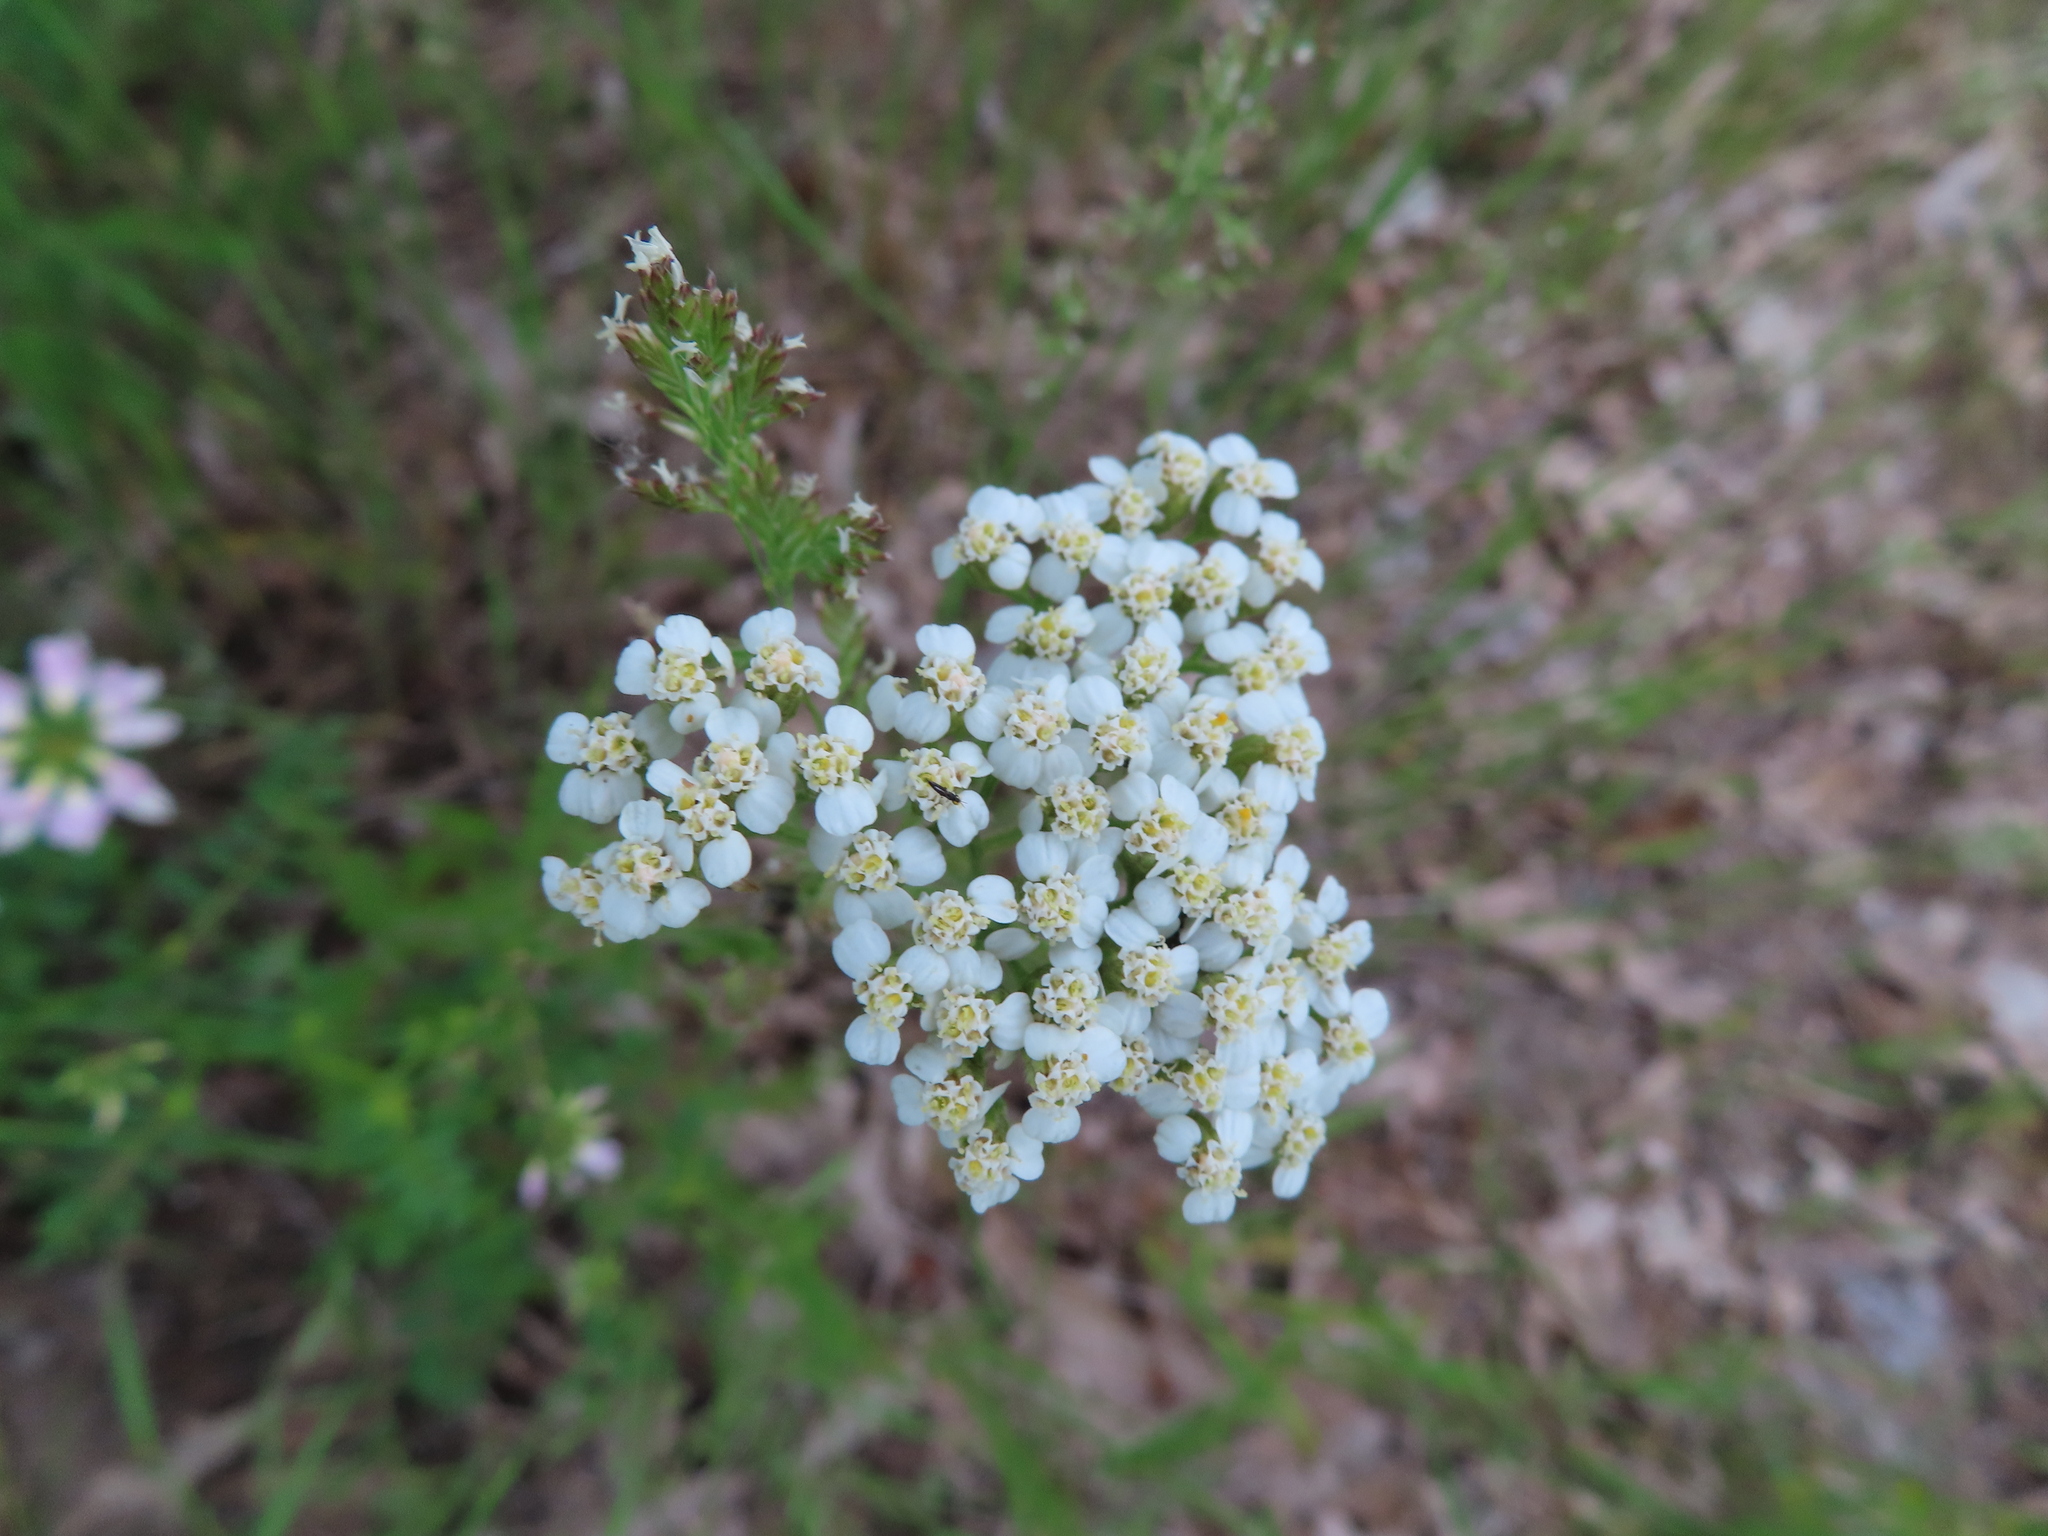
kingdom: Plantae
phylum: Tracheophyta
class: Magnoliopsida
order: Asterales
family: Asteraceae
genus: Achillea
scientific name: Achillea millefolium
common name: Yarrow
